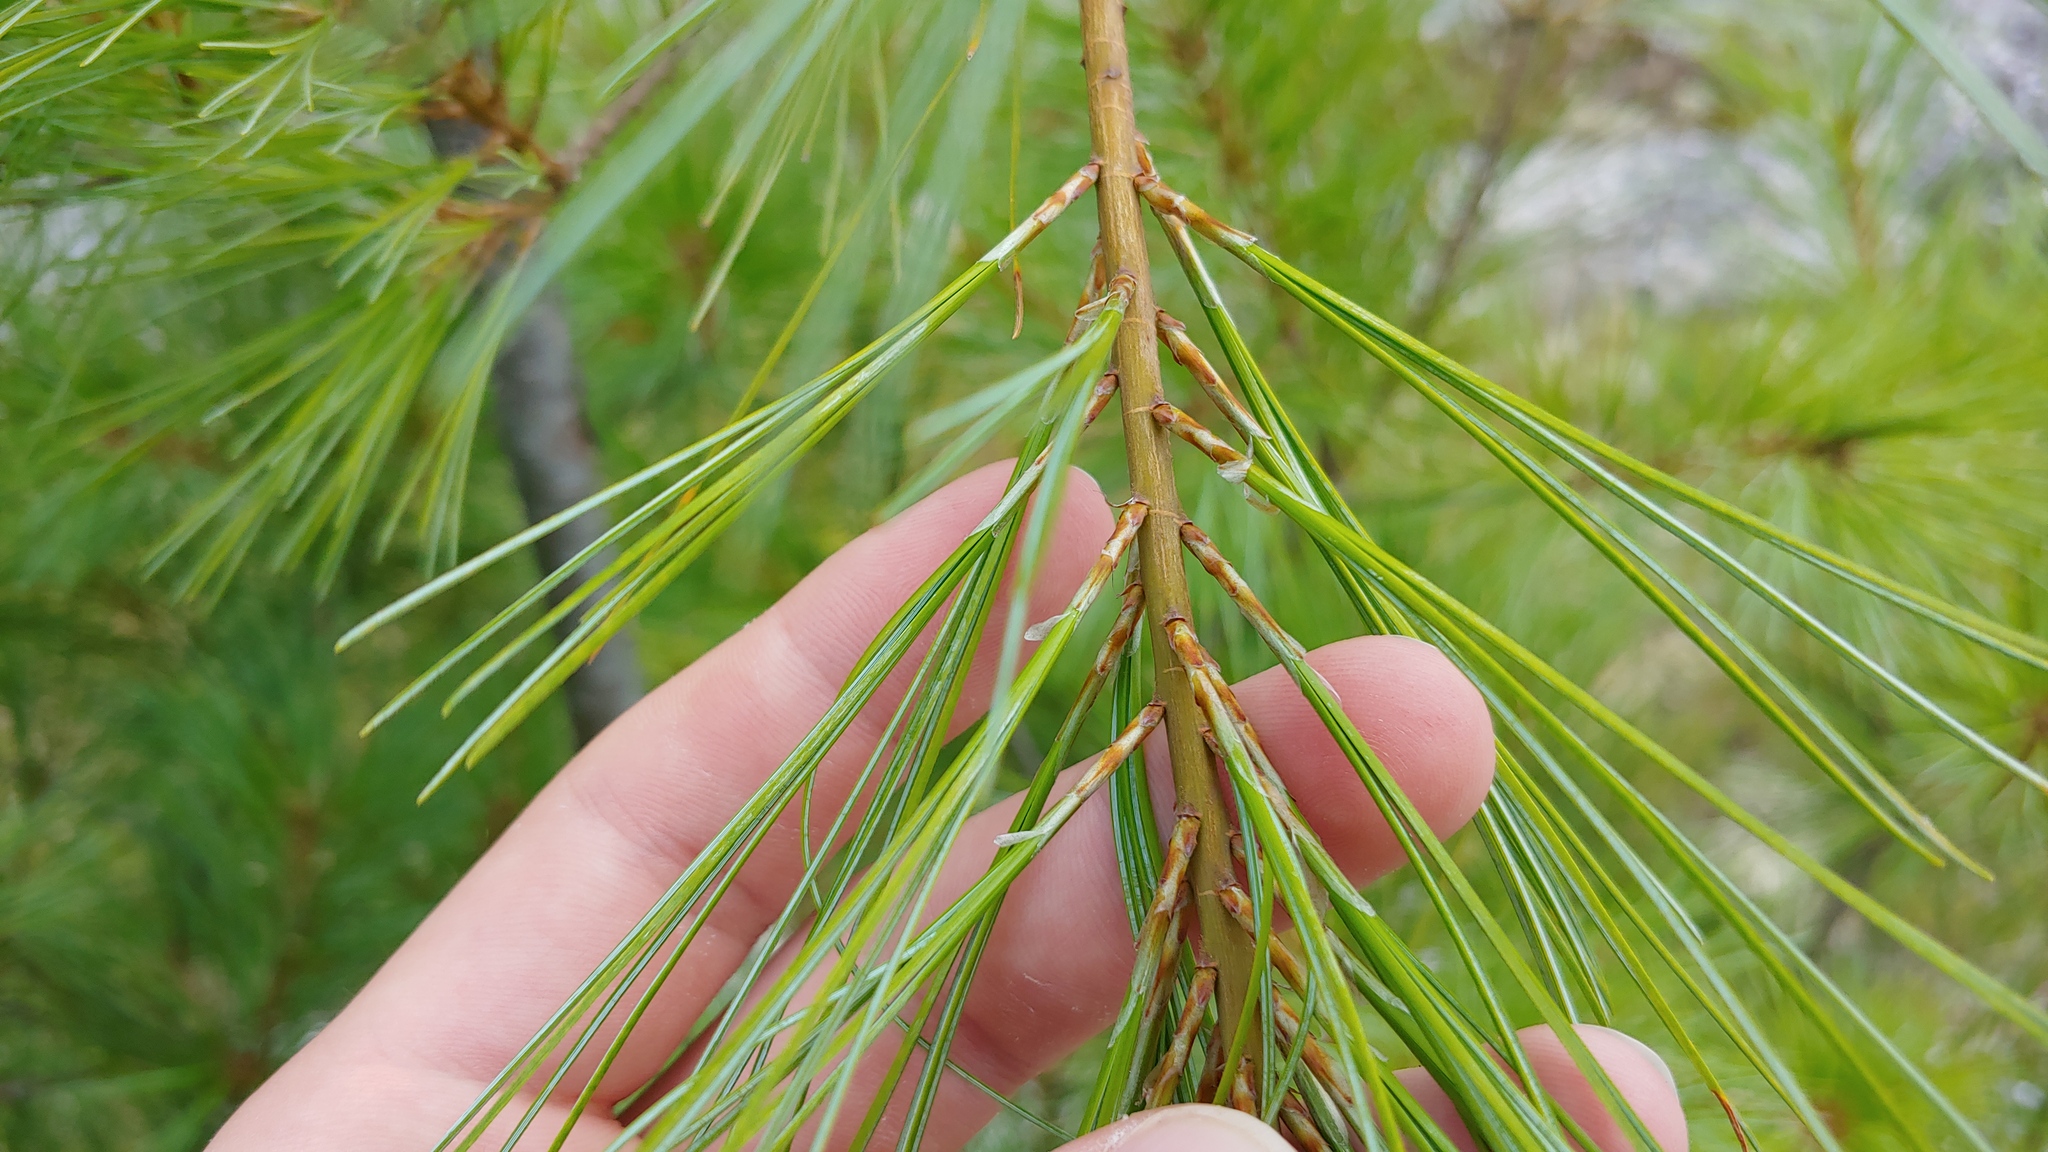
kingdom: Plantae
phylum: Tracheophyta
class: Pinopsida
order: Pinales
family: Pinaceae
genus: Pinus
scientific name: Pinus strobus
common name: Weymouth pine
